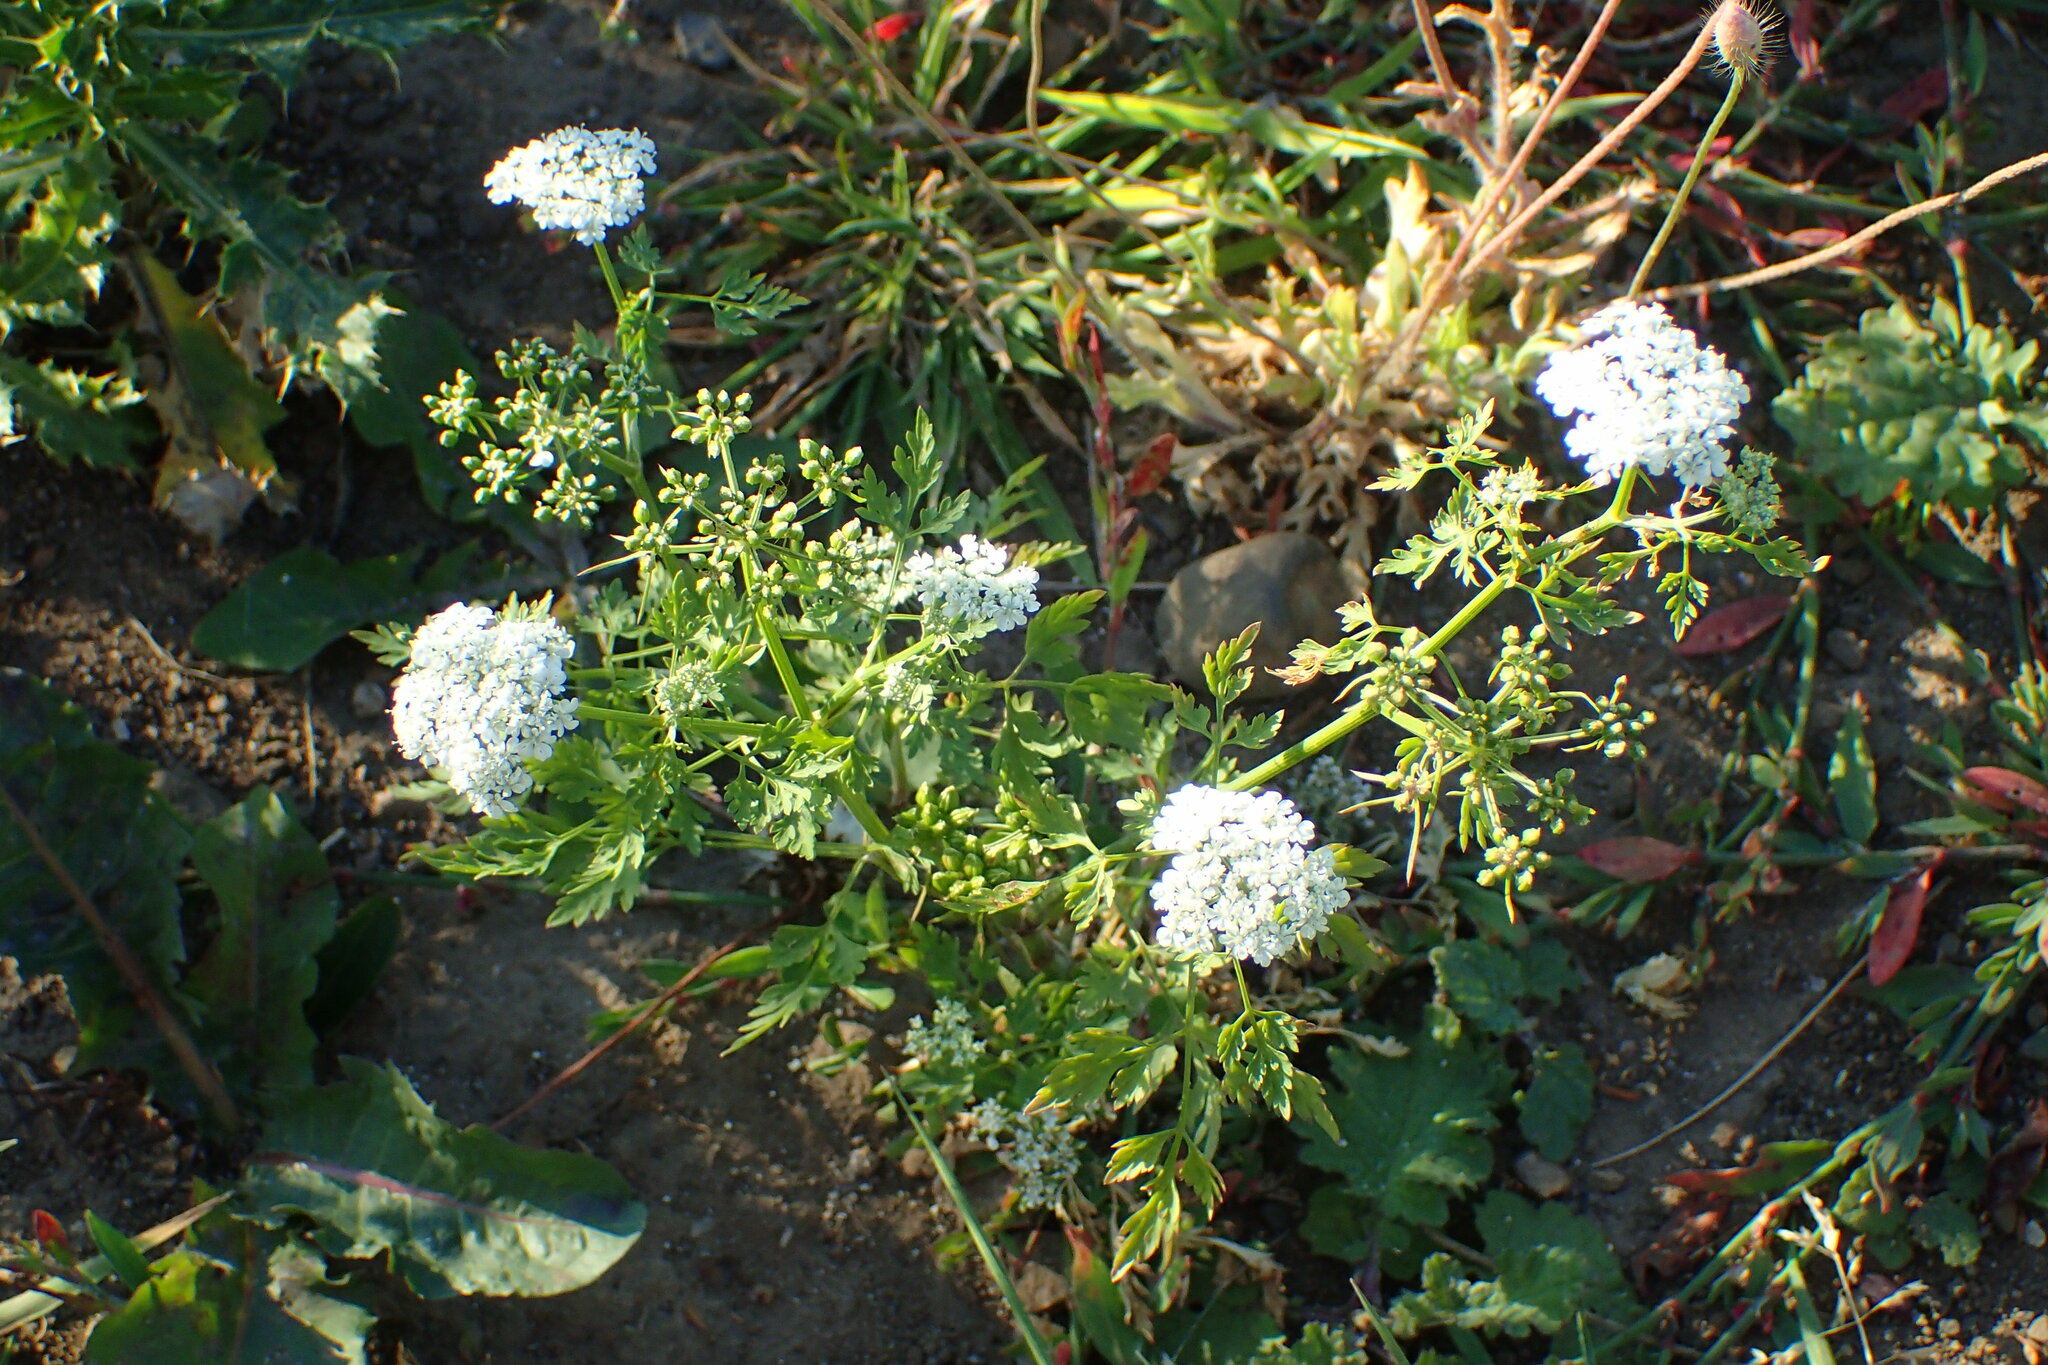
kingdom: Plantae
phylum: Tracheophyta
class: Magnoliopsida
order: Apiales
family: Apiaceae
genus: Aethusa
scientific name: Aethusa cynapium
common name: Fool's parsley
